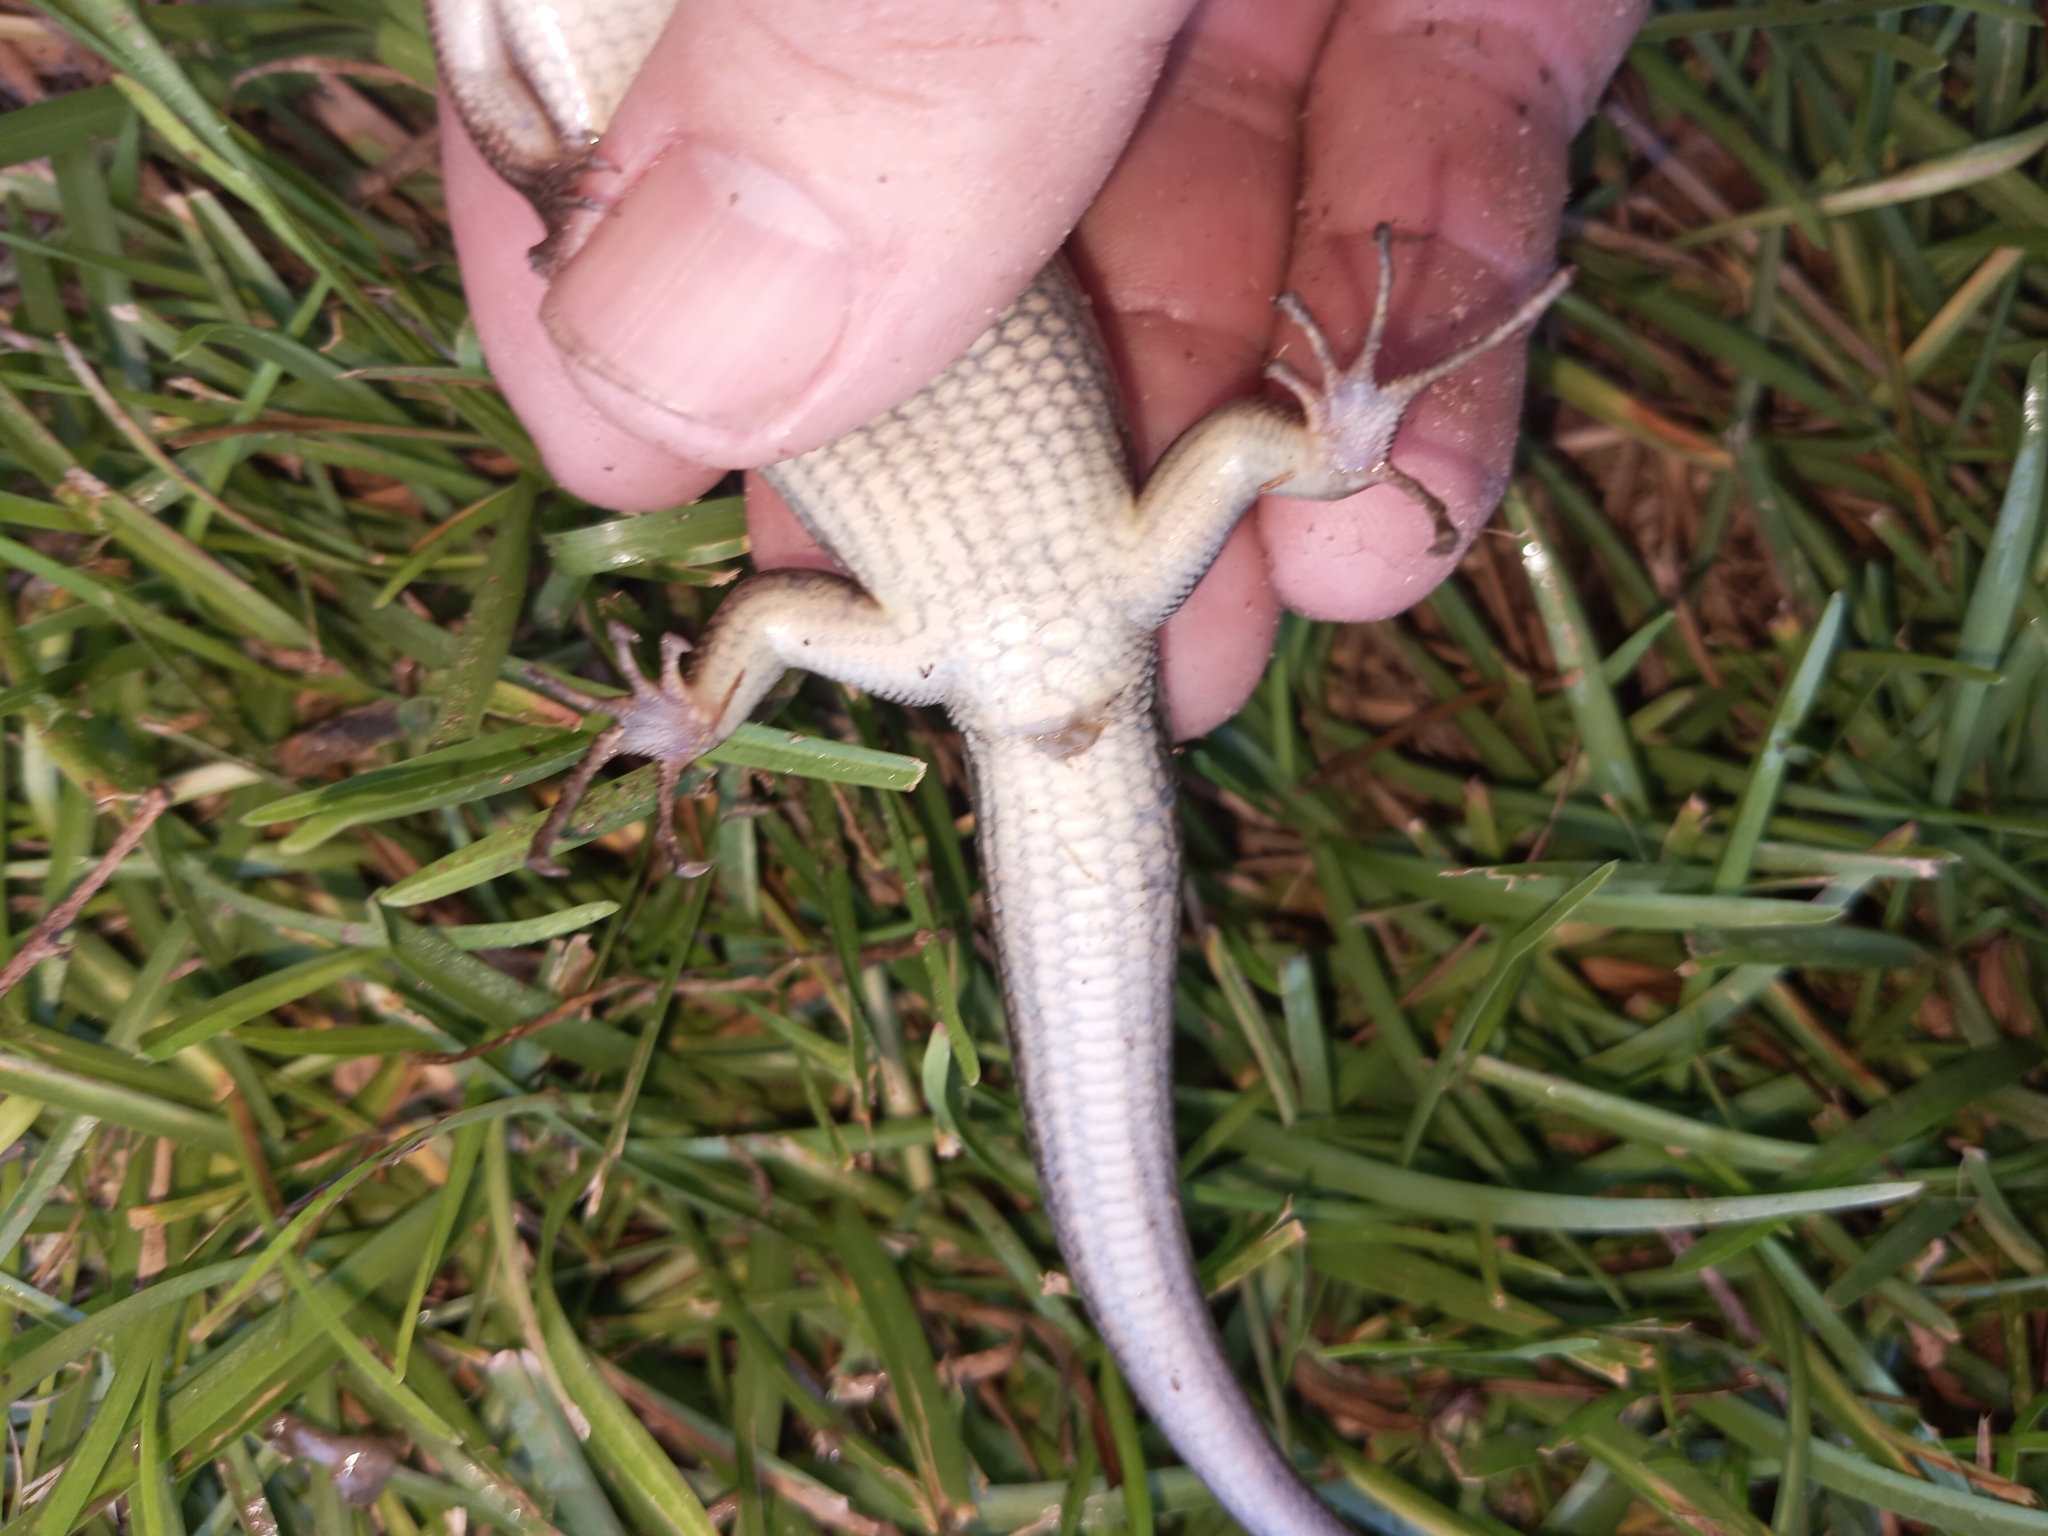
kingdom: Animalia
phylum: Chordata
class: Squamata
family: Scincidae
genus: Plestiodon
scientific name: Plestiodon laticeps
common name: Broadhead skink
